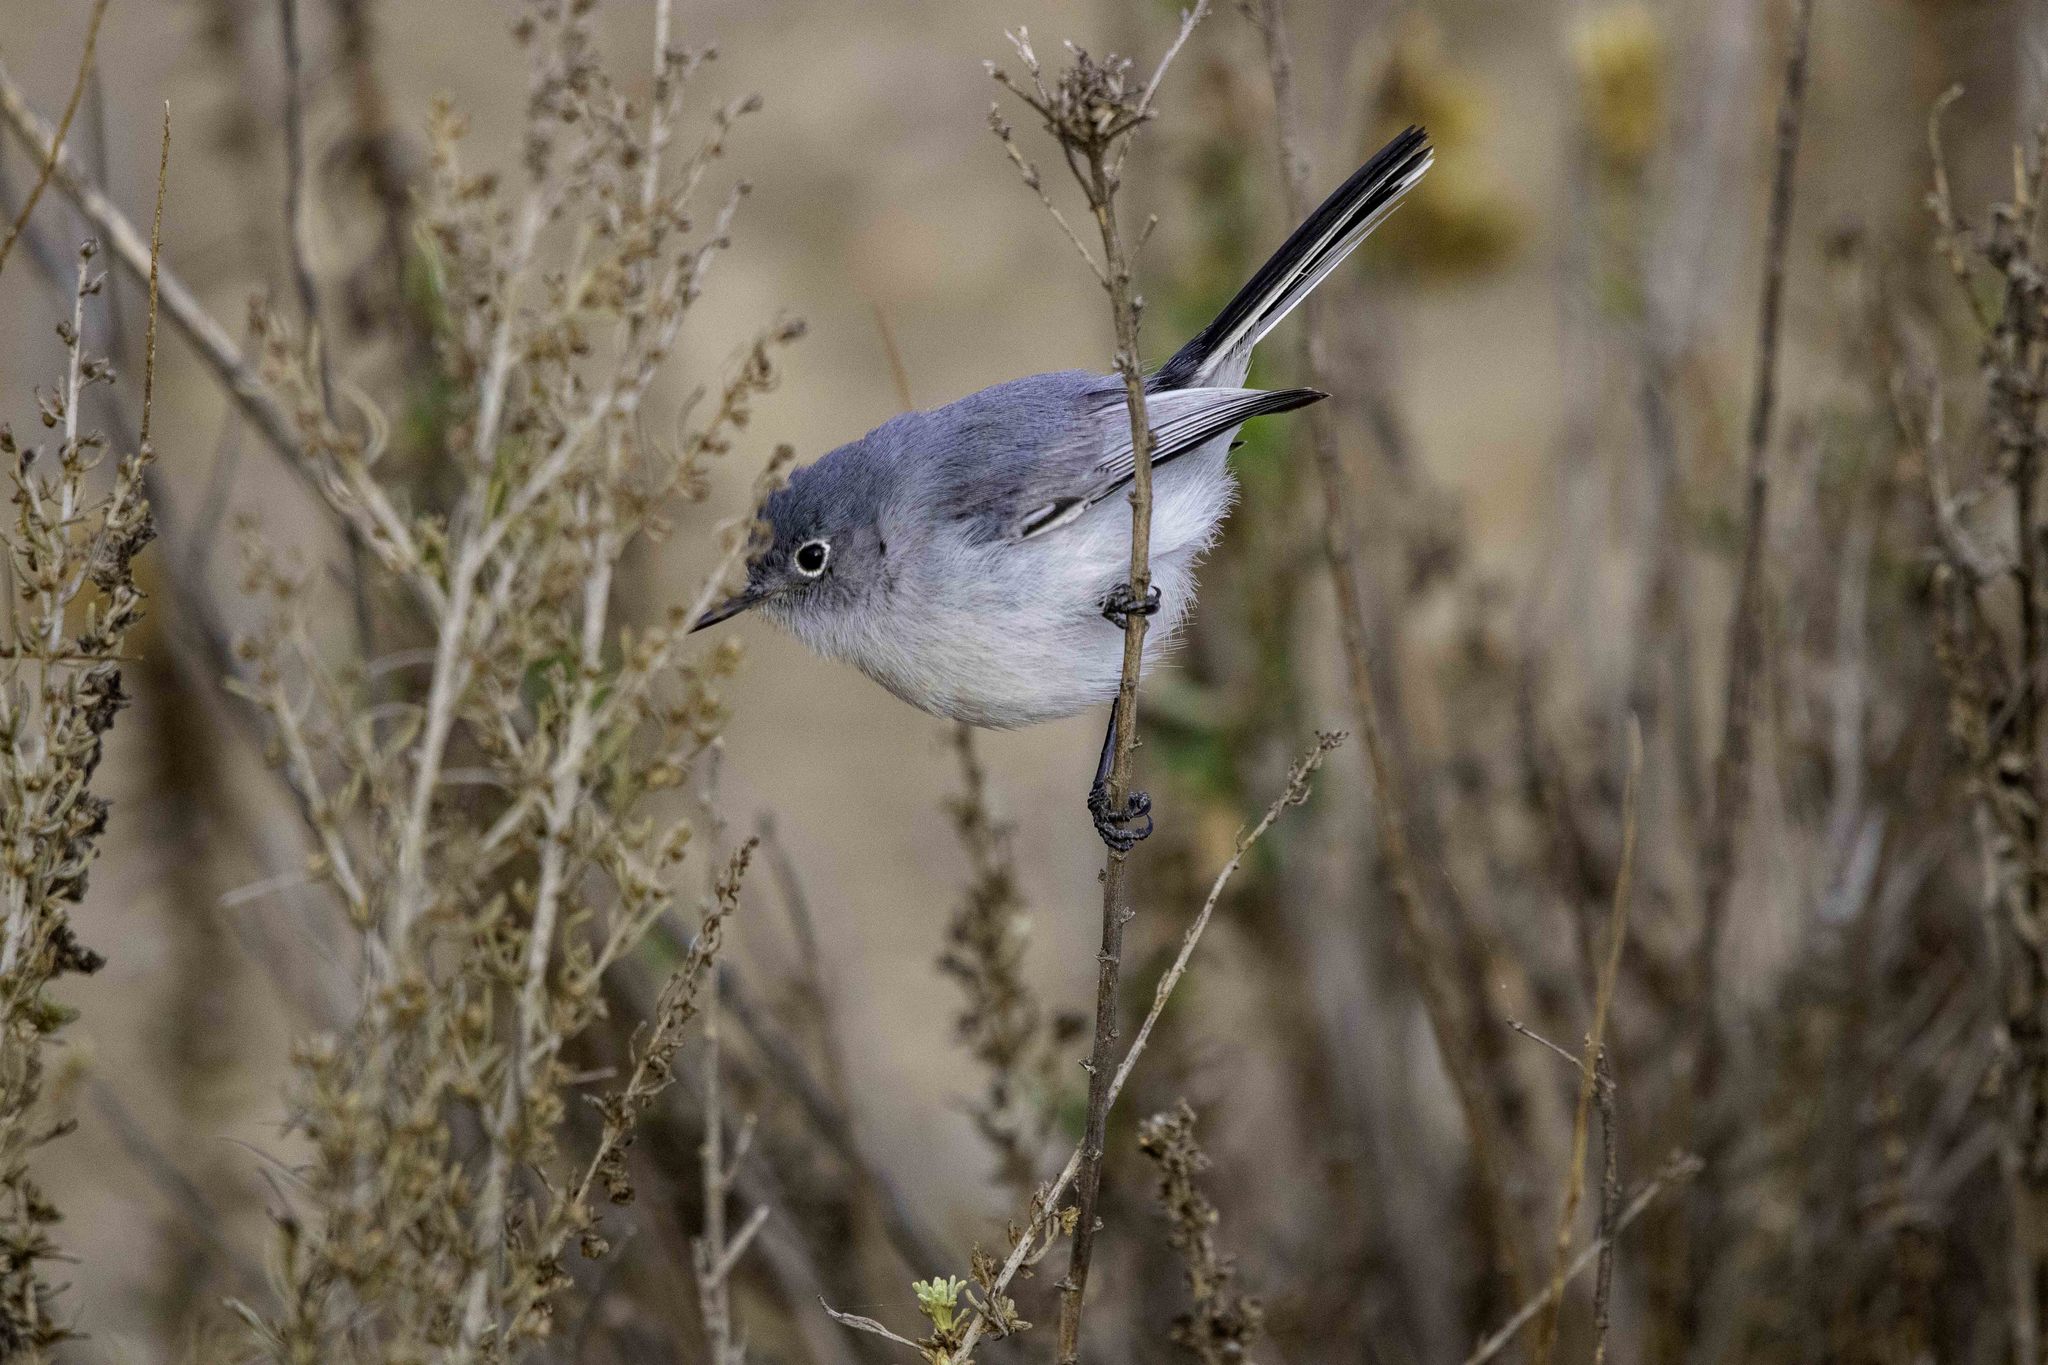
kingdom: Animalia
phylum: Chordata
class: Aves
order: Passeriformes
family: Polioptilidae
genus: Polioptila
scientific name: Polioptila caerulea
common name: Blue-gray gnatcatcher
